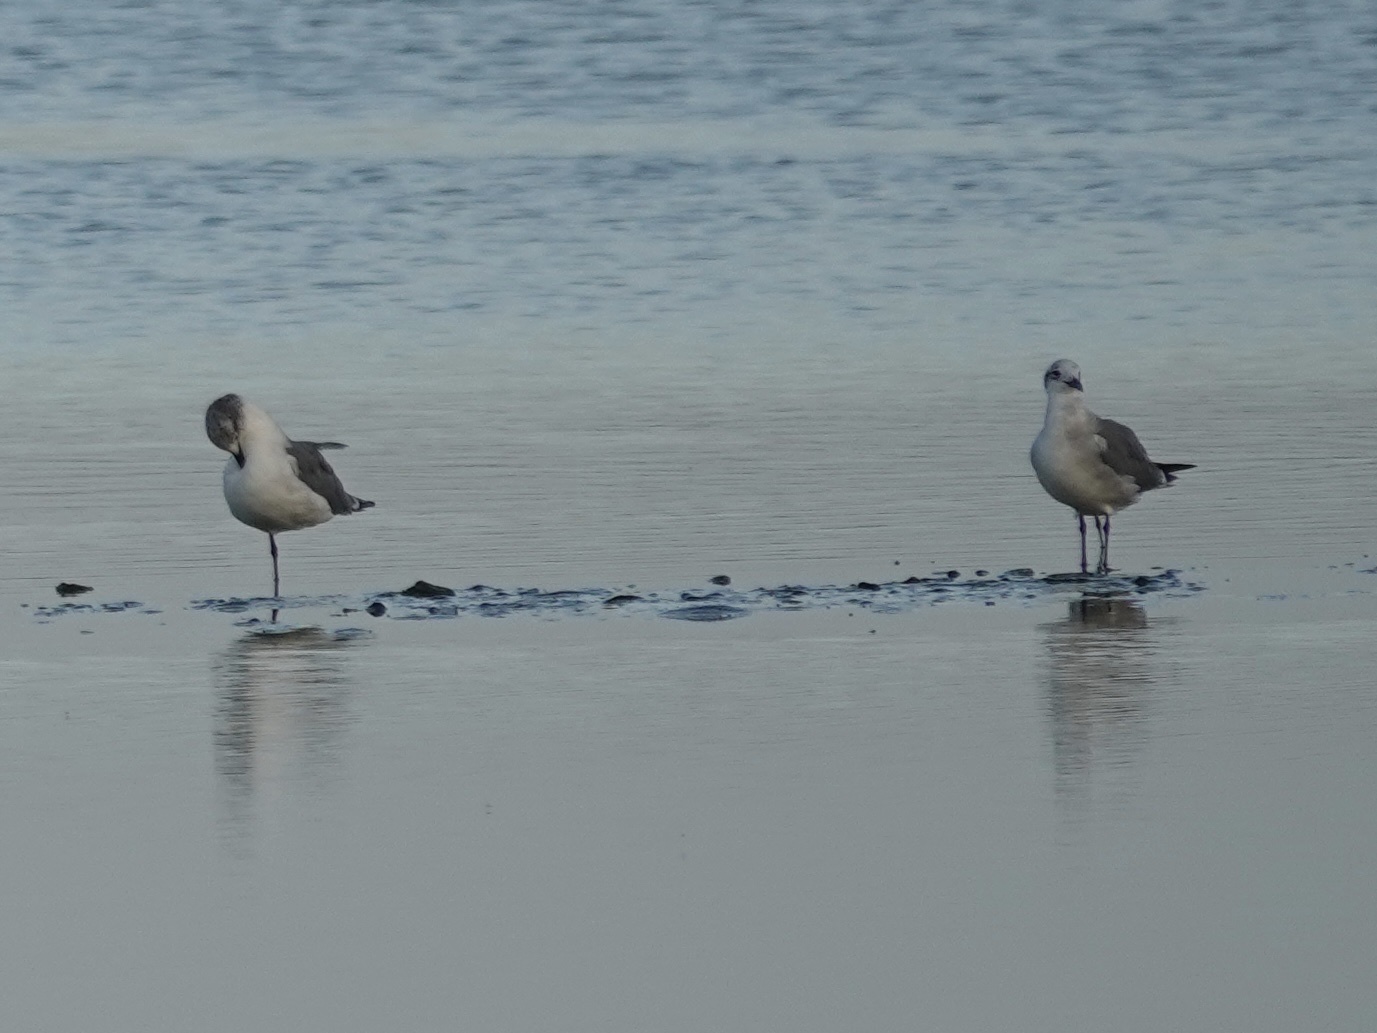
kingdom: Animalia
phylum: Chordata
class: Aves
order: Charadriiformes
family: Laridae
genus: Leucophaeus
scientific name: Leucophaeus atricilla
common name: Laughing gull
